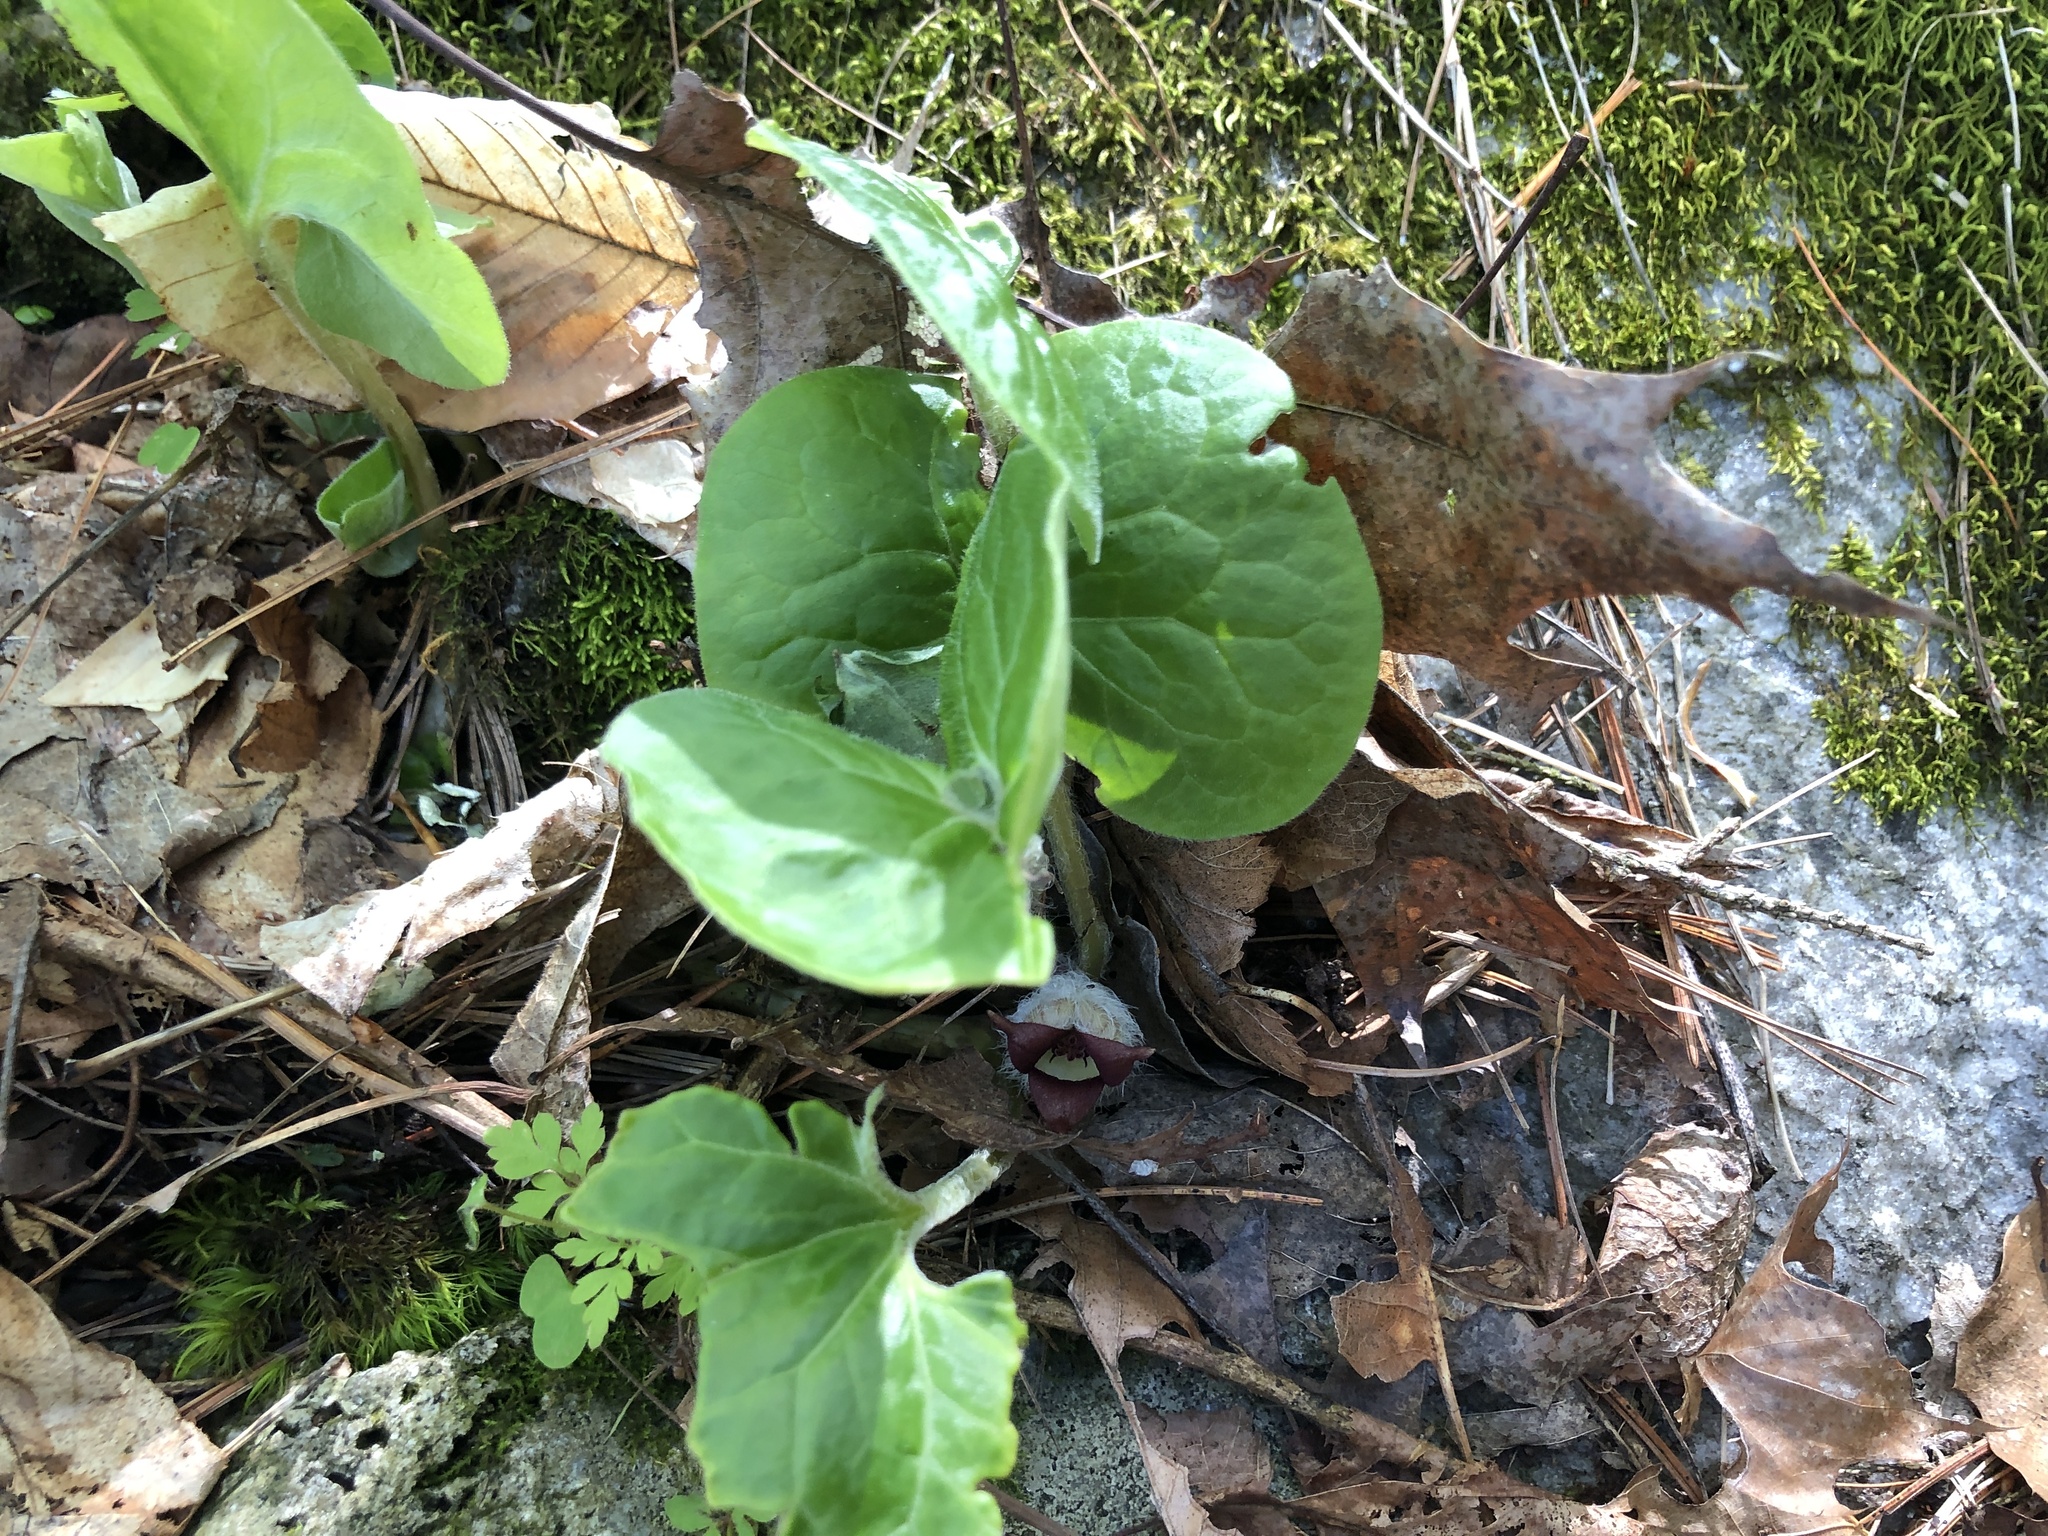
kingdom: Plantae
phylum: Tracheophyta
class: Magnoliopsida
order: Piperales
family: Aristolochiaceae
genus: Asarum
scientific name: Asarum canadense
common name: Wild ginger
